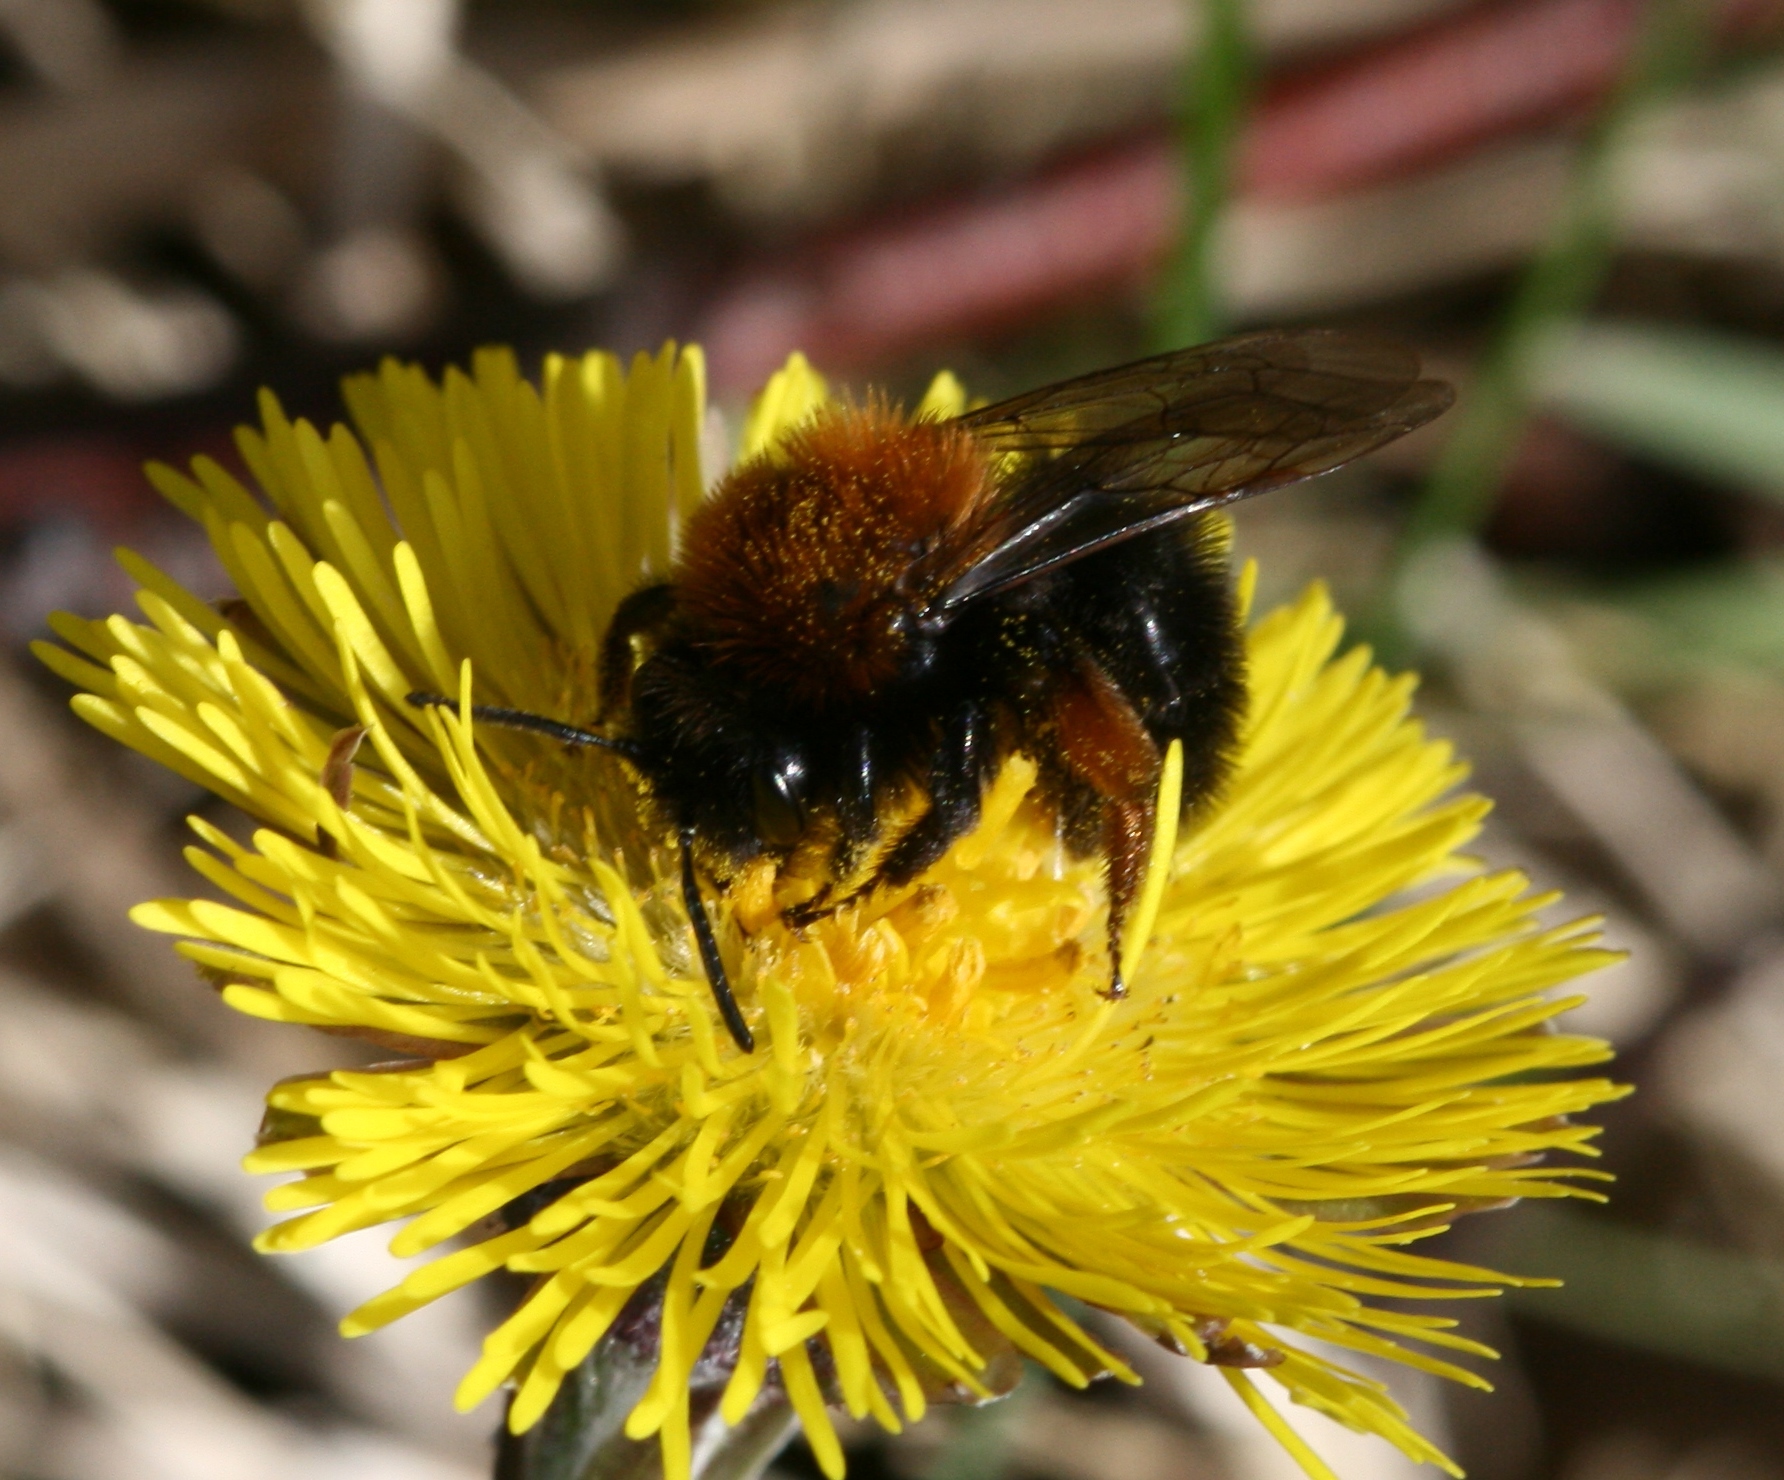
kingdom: Animalia
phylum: Arthropoda
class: Insecta
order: Hymenoptera
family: Andrenidae
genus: Andrena
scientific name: Andrena clarkella
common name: Clarke's mining bee
